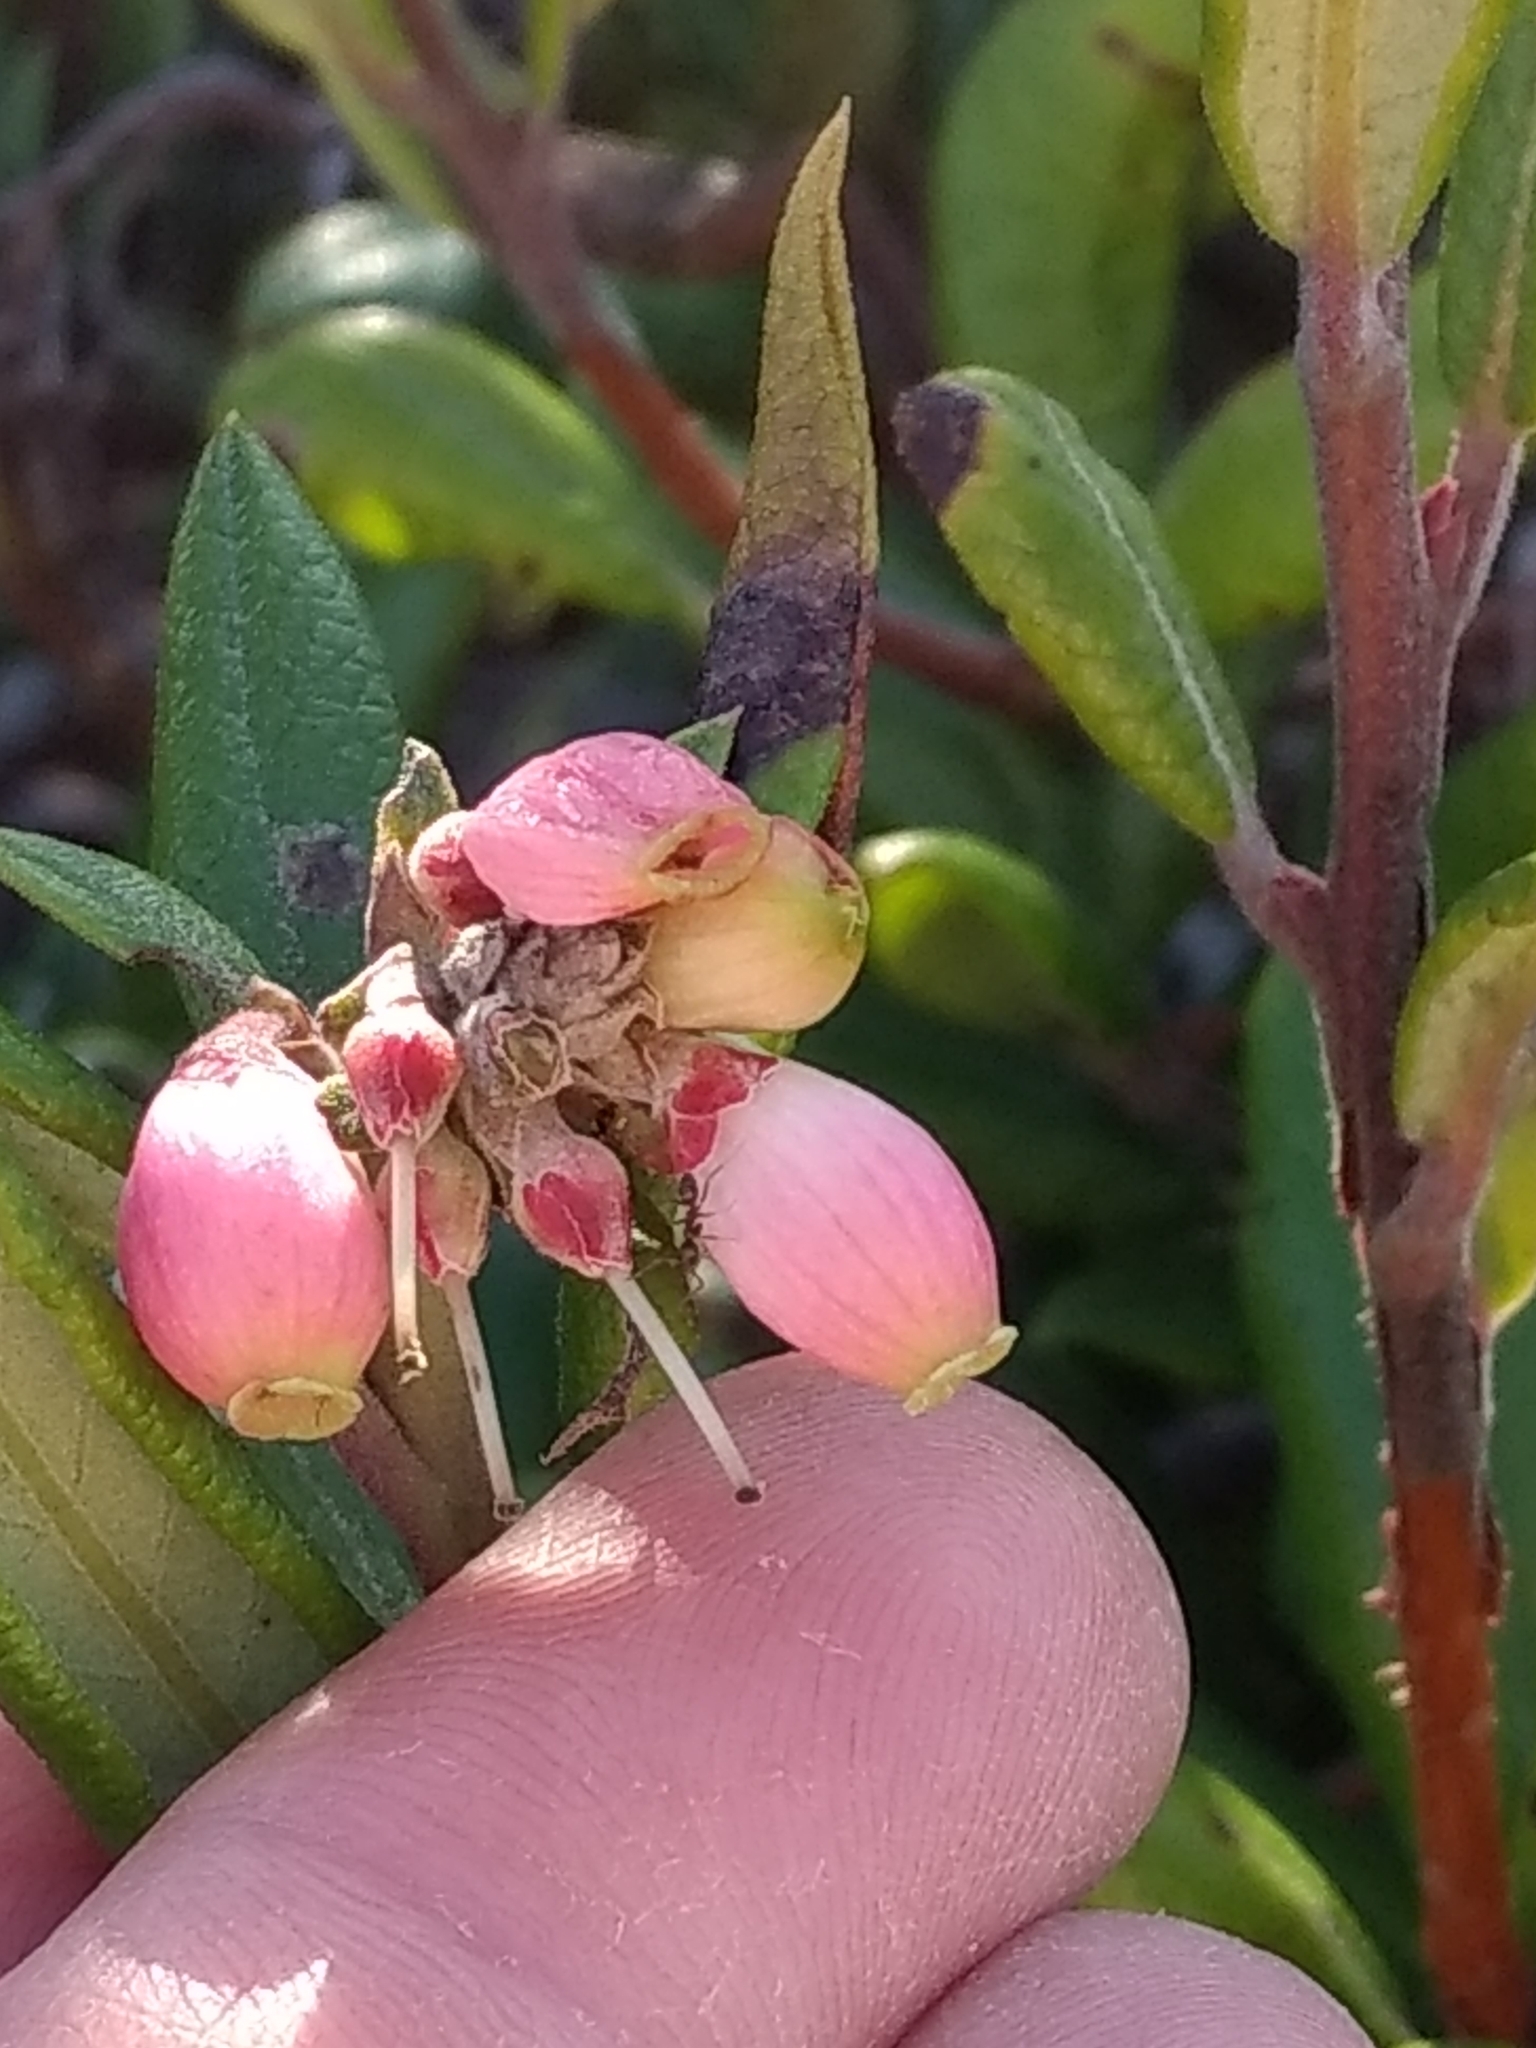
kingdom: Animalia
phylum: Arthropoda
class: Insecta
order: Hymenoptera
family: Formicidae
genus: Linepithema
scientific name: Linepithema humile
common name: Argentine ant
